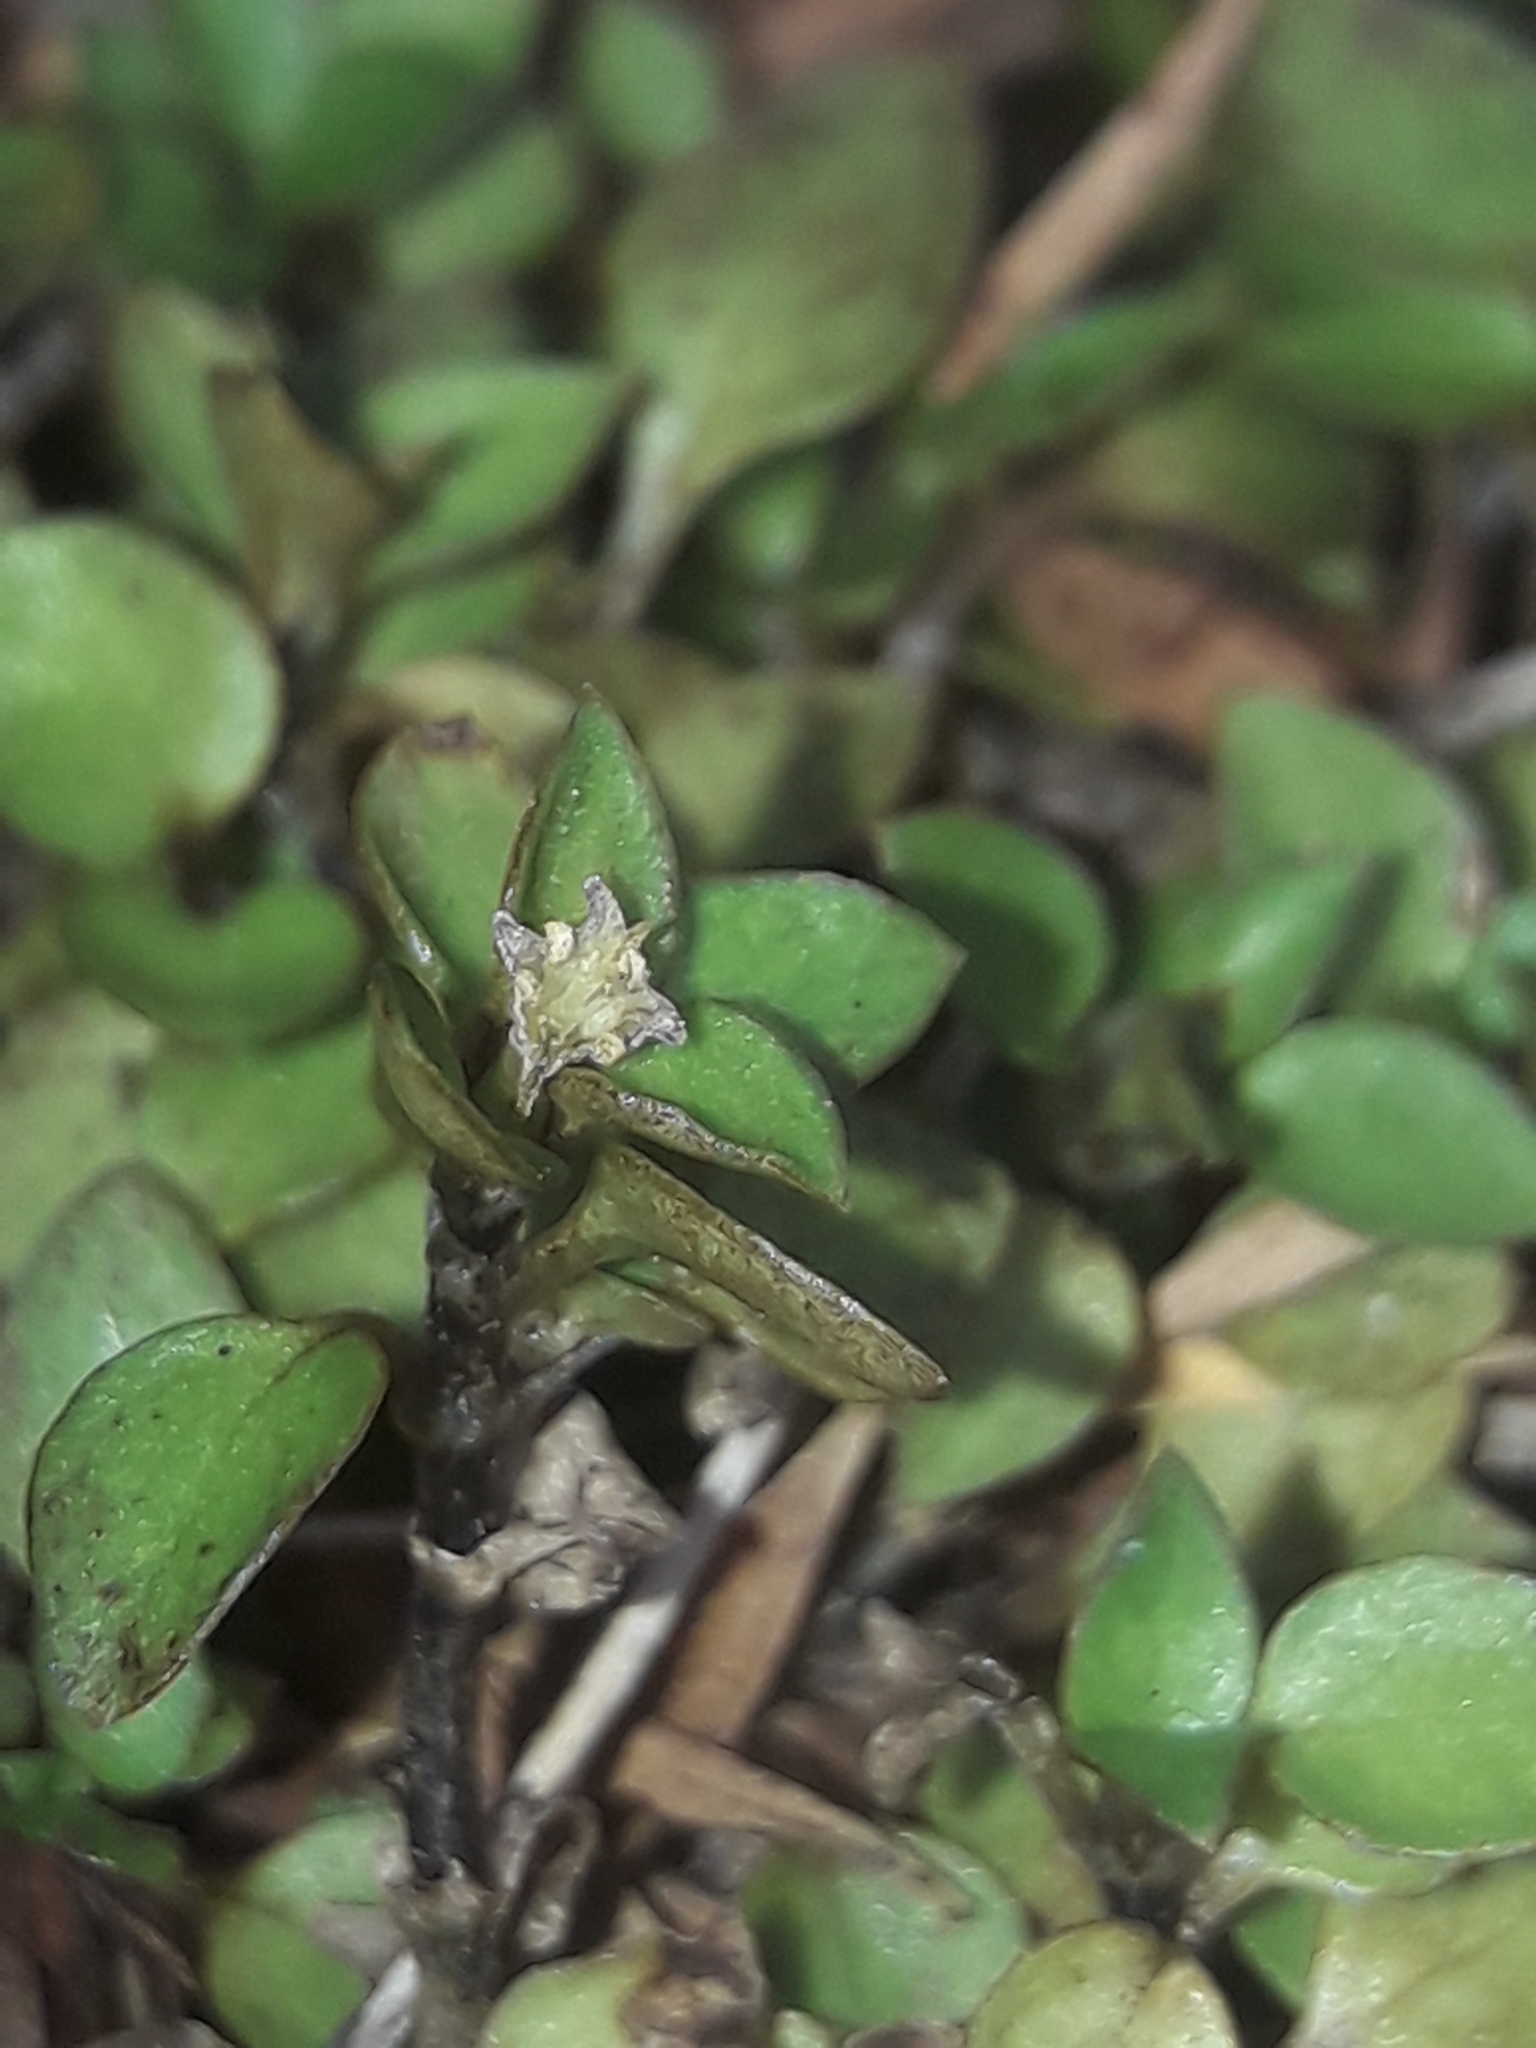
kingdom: Plantae
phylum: Tracheophyta
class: Magnoliopsida
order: Gentianales
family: Rubiaceae
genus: Nertera
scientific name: Nertera granadensis
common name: Beadplant
